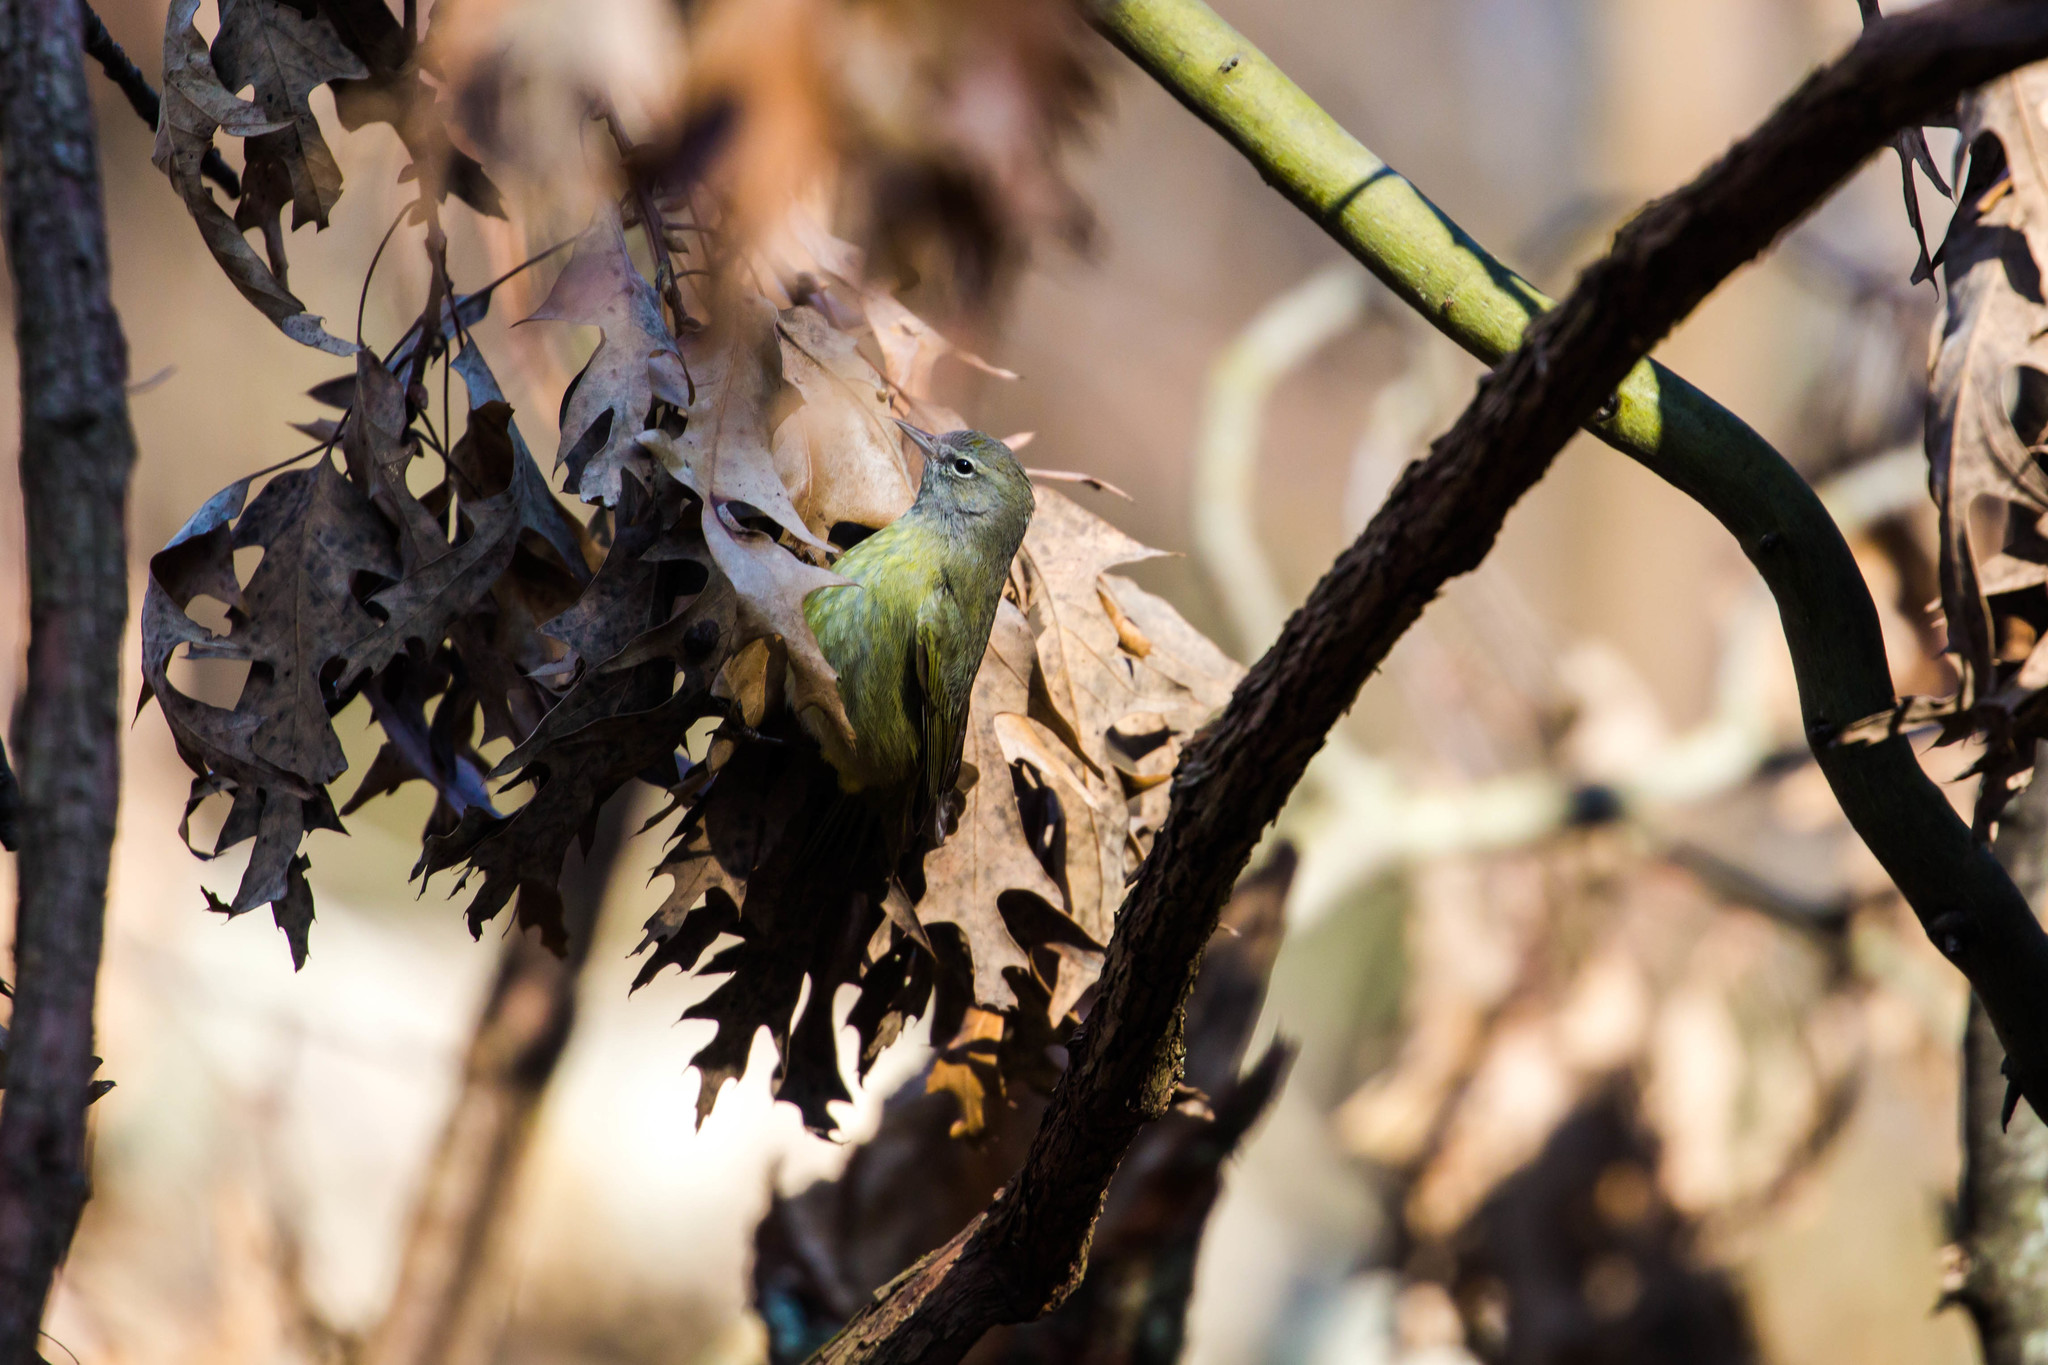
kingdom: Animalia
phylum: Chordata
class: Aves
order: Passeriformes
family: Parulidae
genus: Leiothlypis
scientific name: Leiothlypis celata
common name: Orange-crowned warbler
